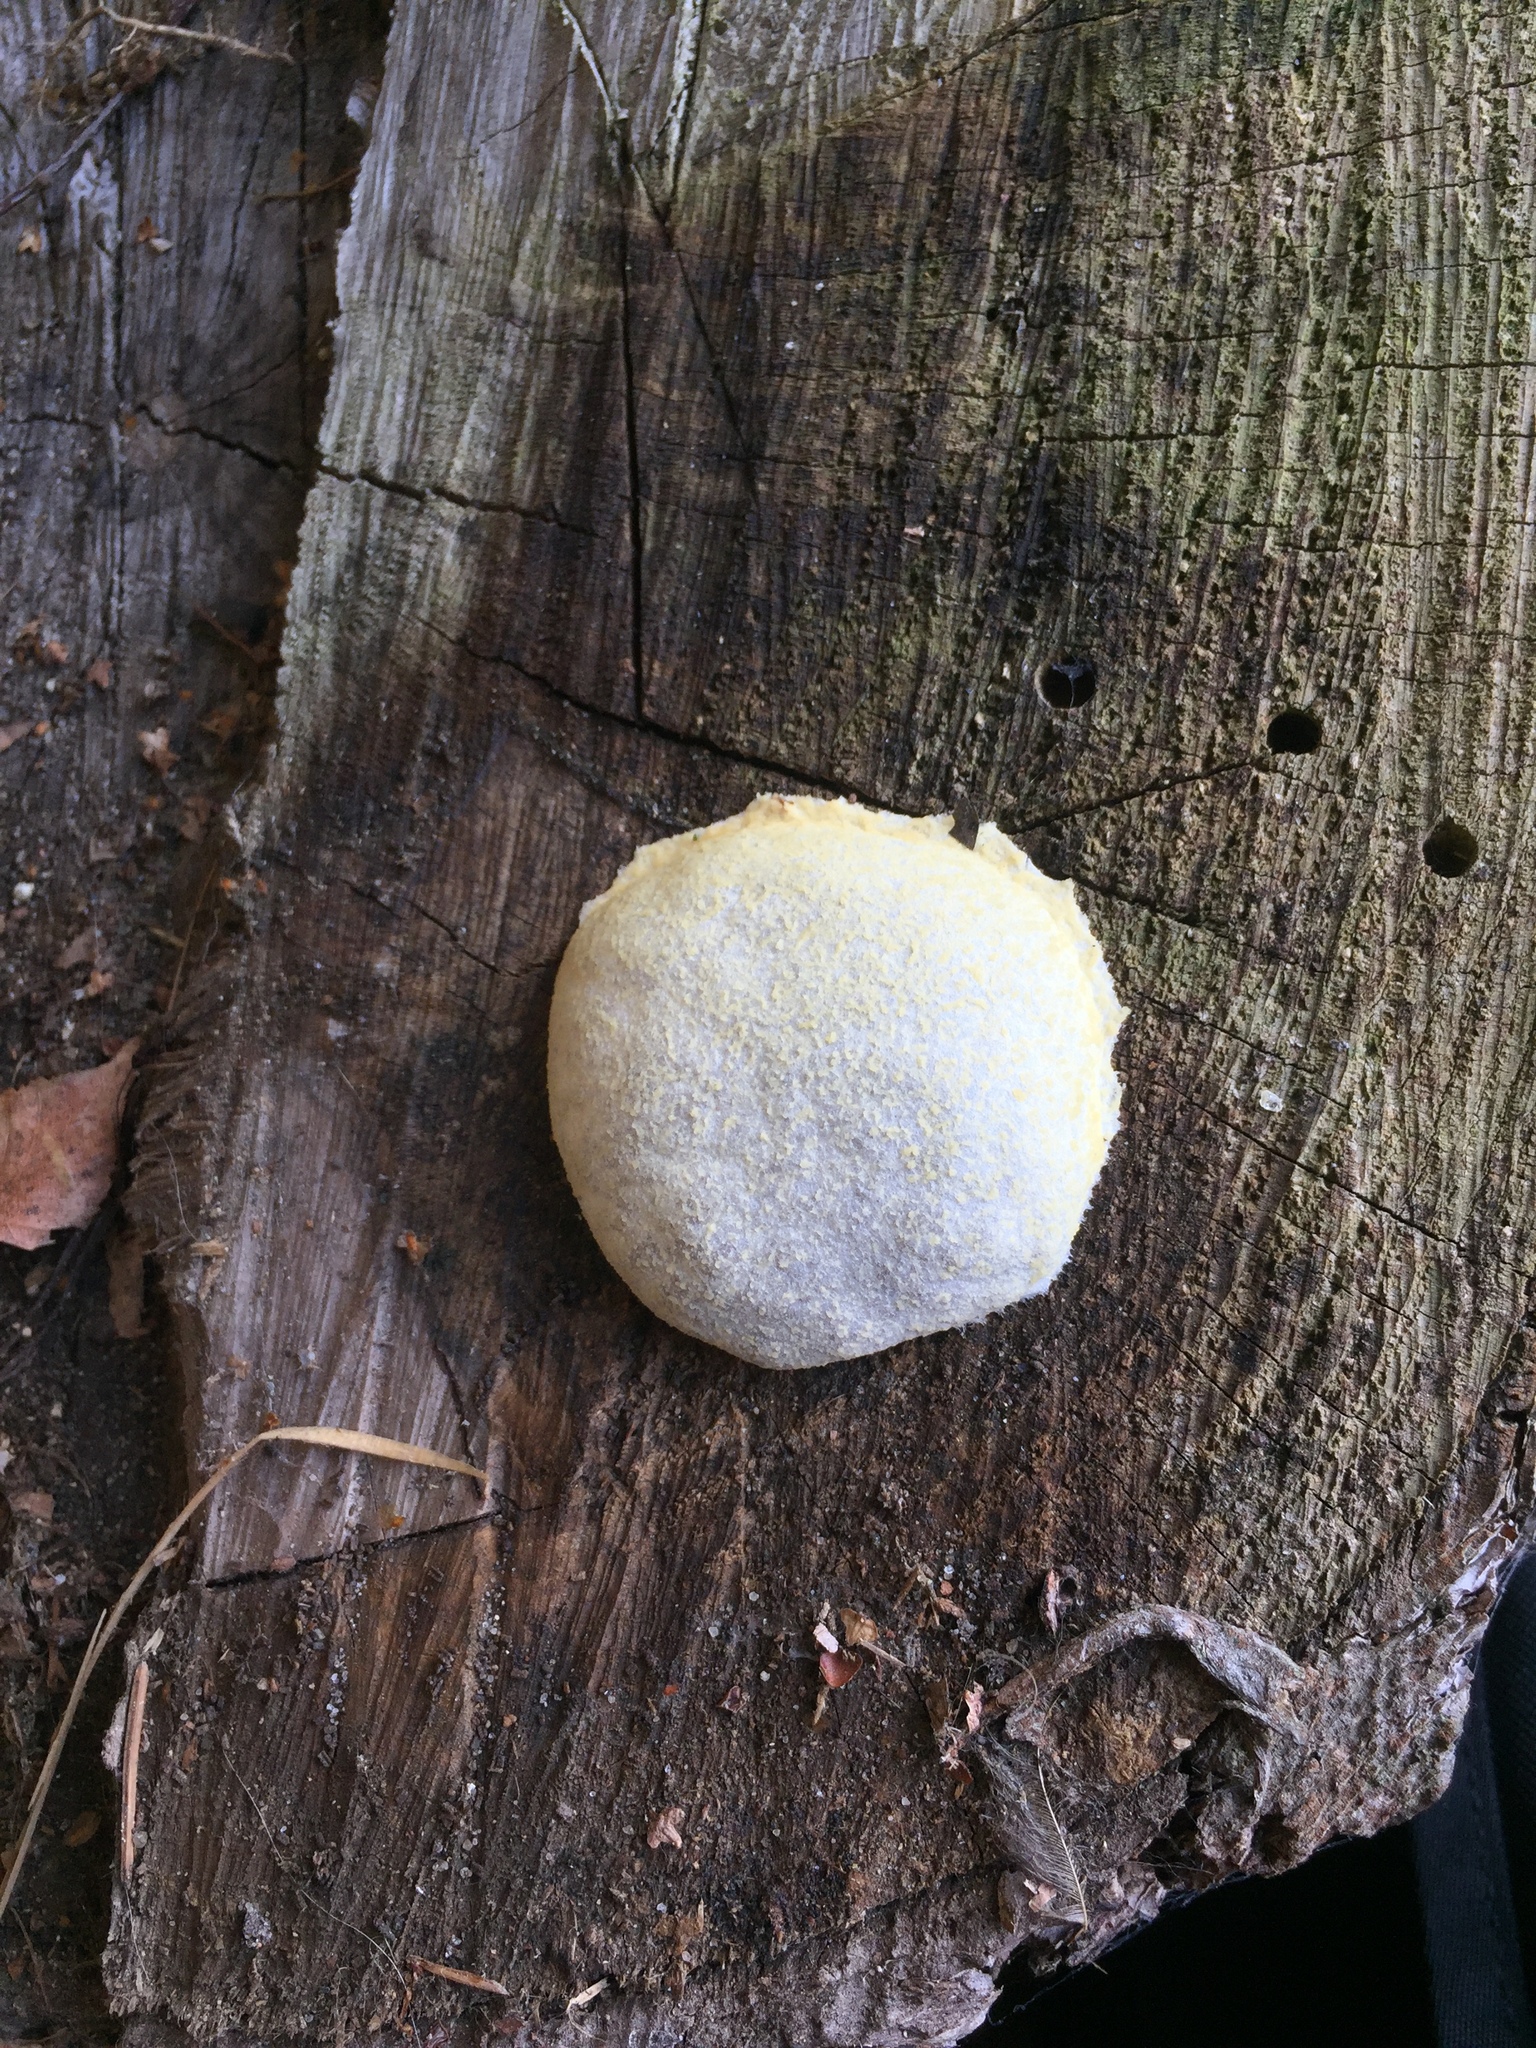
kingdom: Protozoa
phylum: Mycetozoa
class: Myxomycetes
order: Cribrariales
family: Tubiferaceae
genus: Reticularia
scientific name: Reticularia lycoperdon
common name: False puffball
